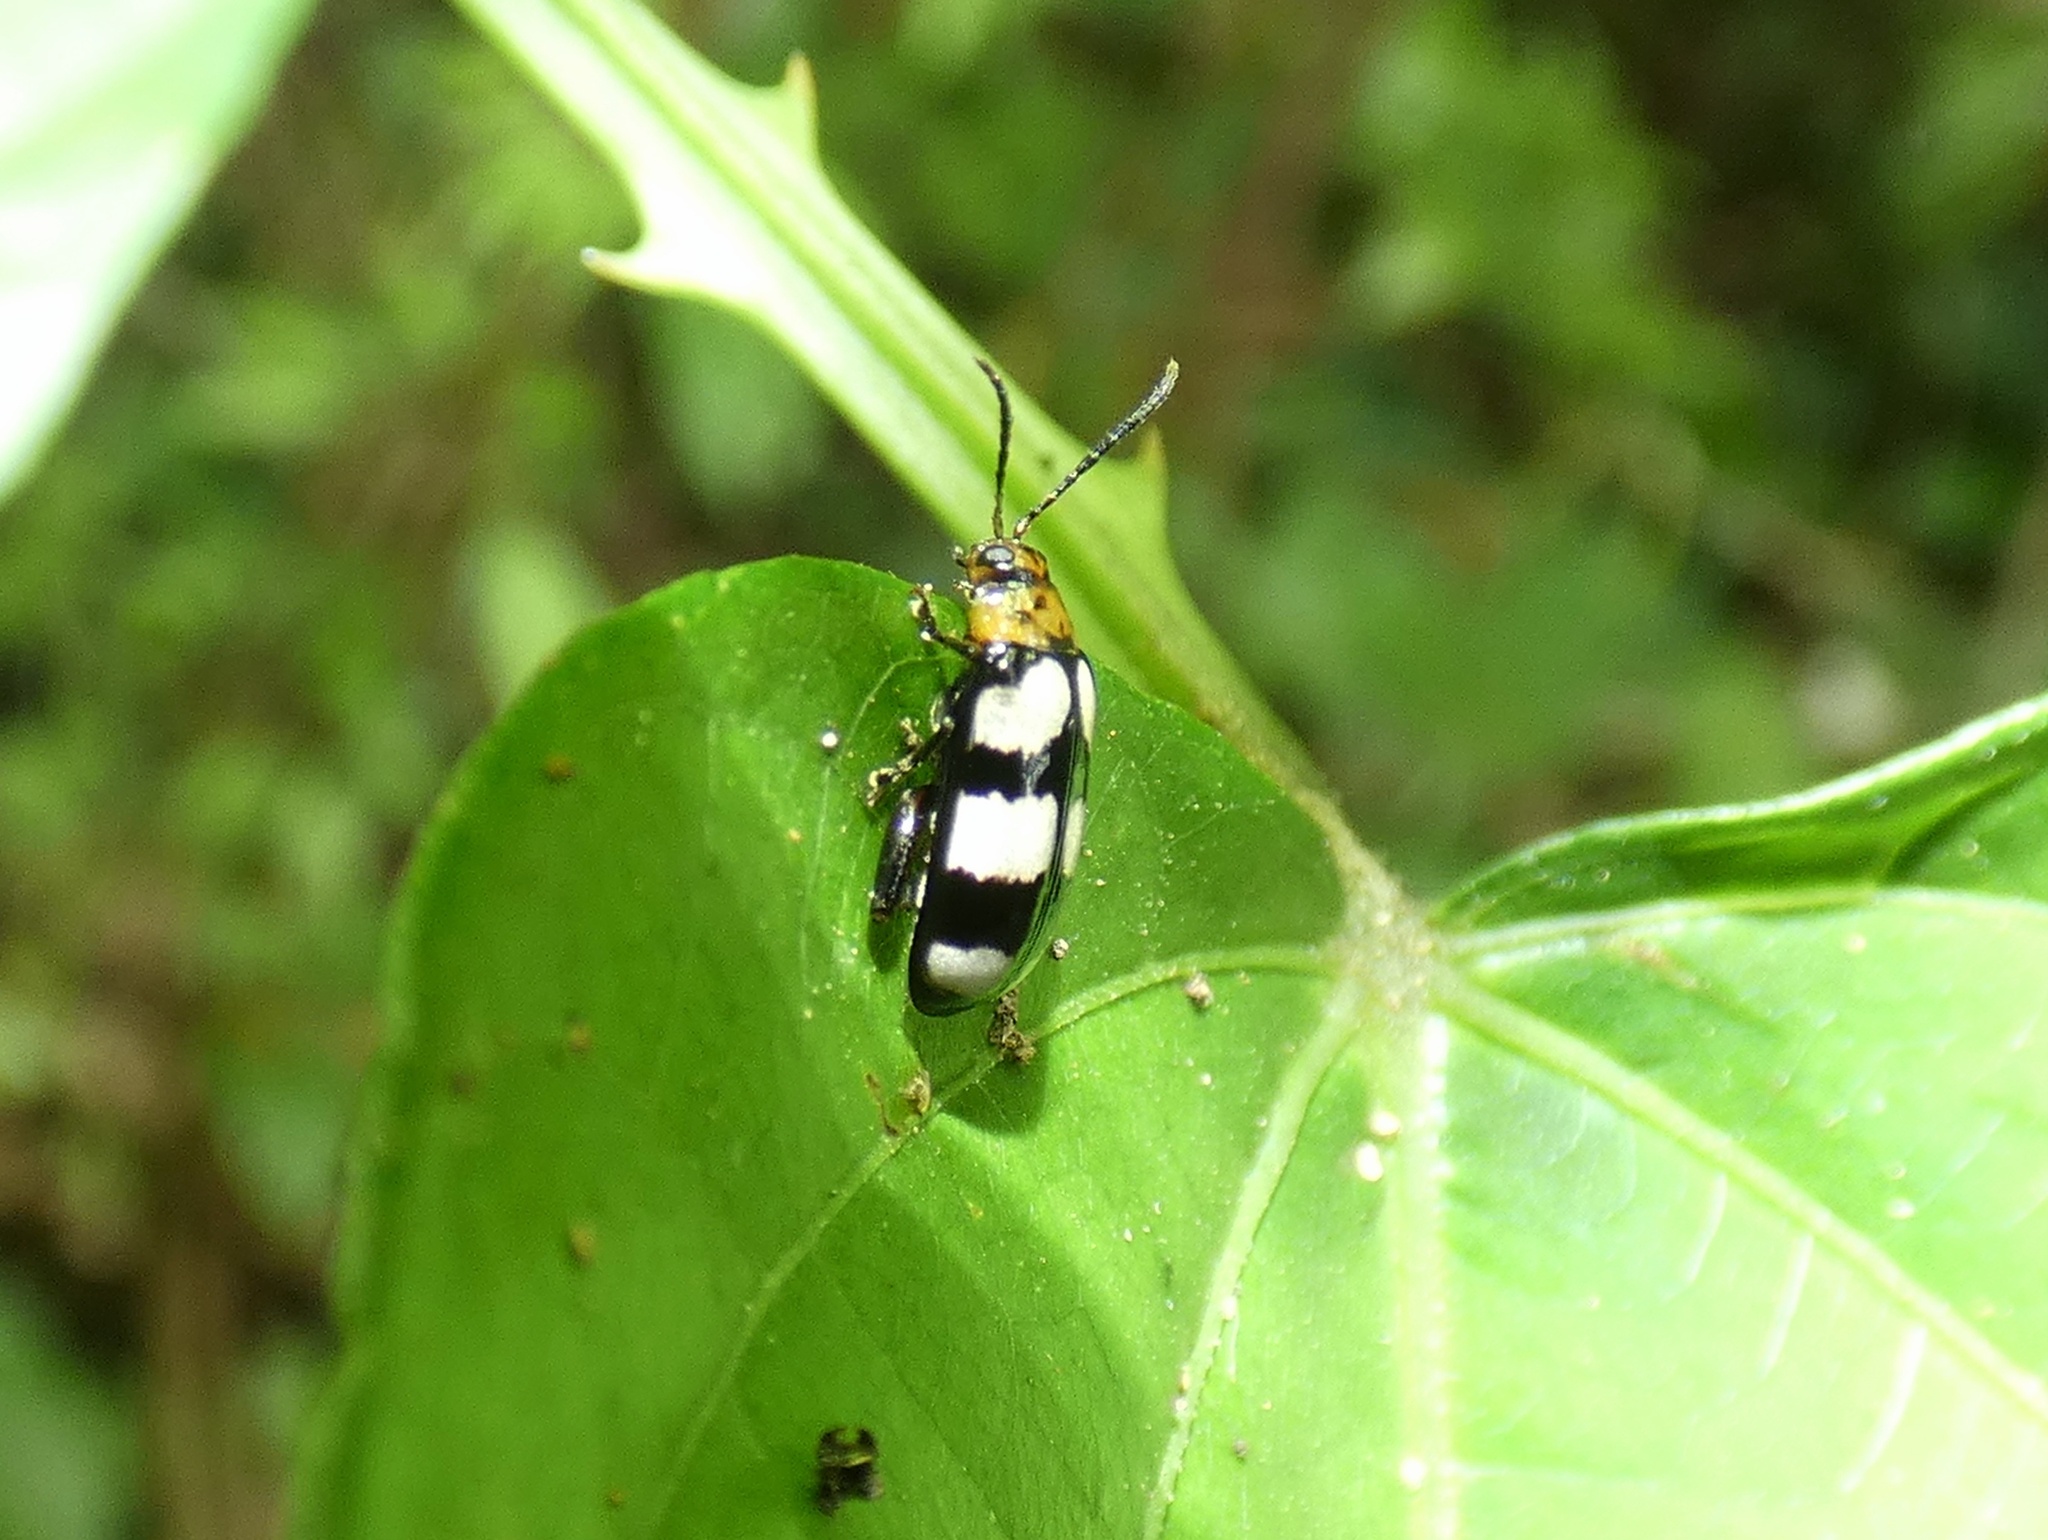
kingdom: Animalia
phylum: Arthropoda
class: Insecta
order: Coleoptera
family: Chrysomelidae
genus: Disonycha
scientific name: Disonycha
